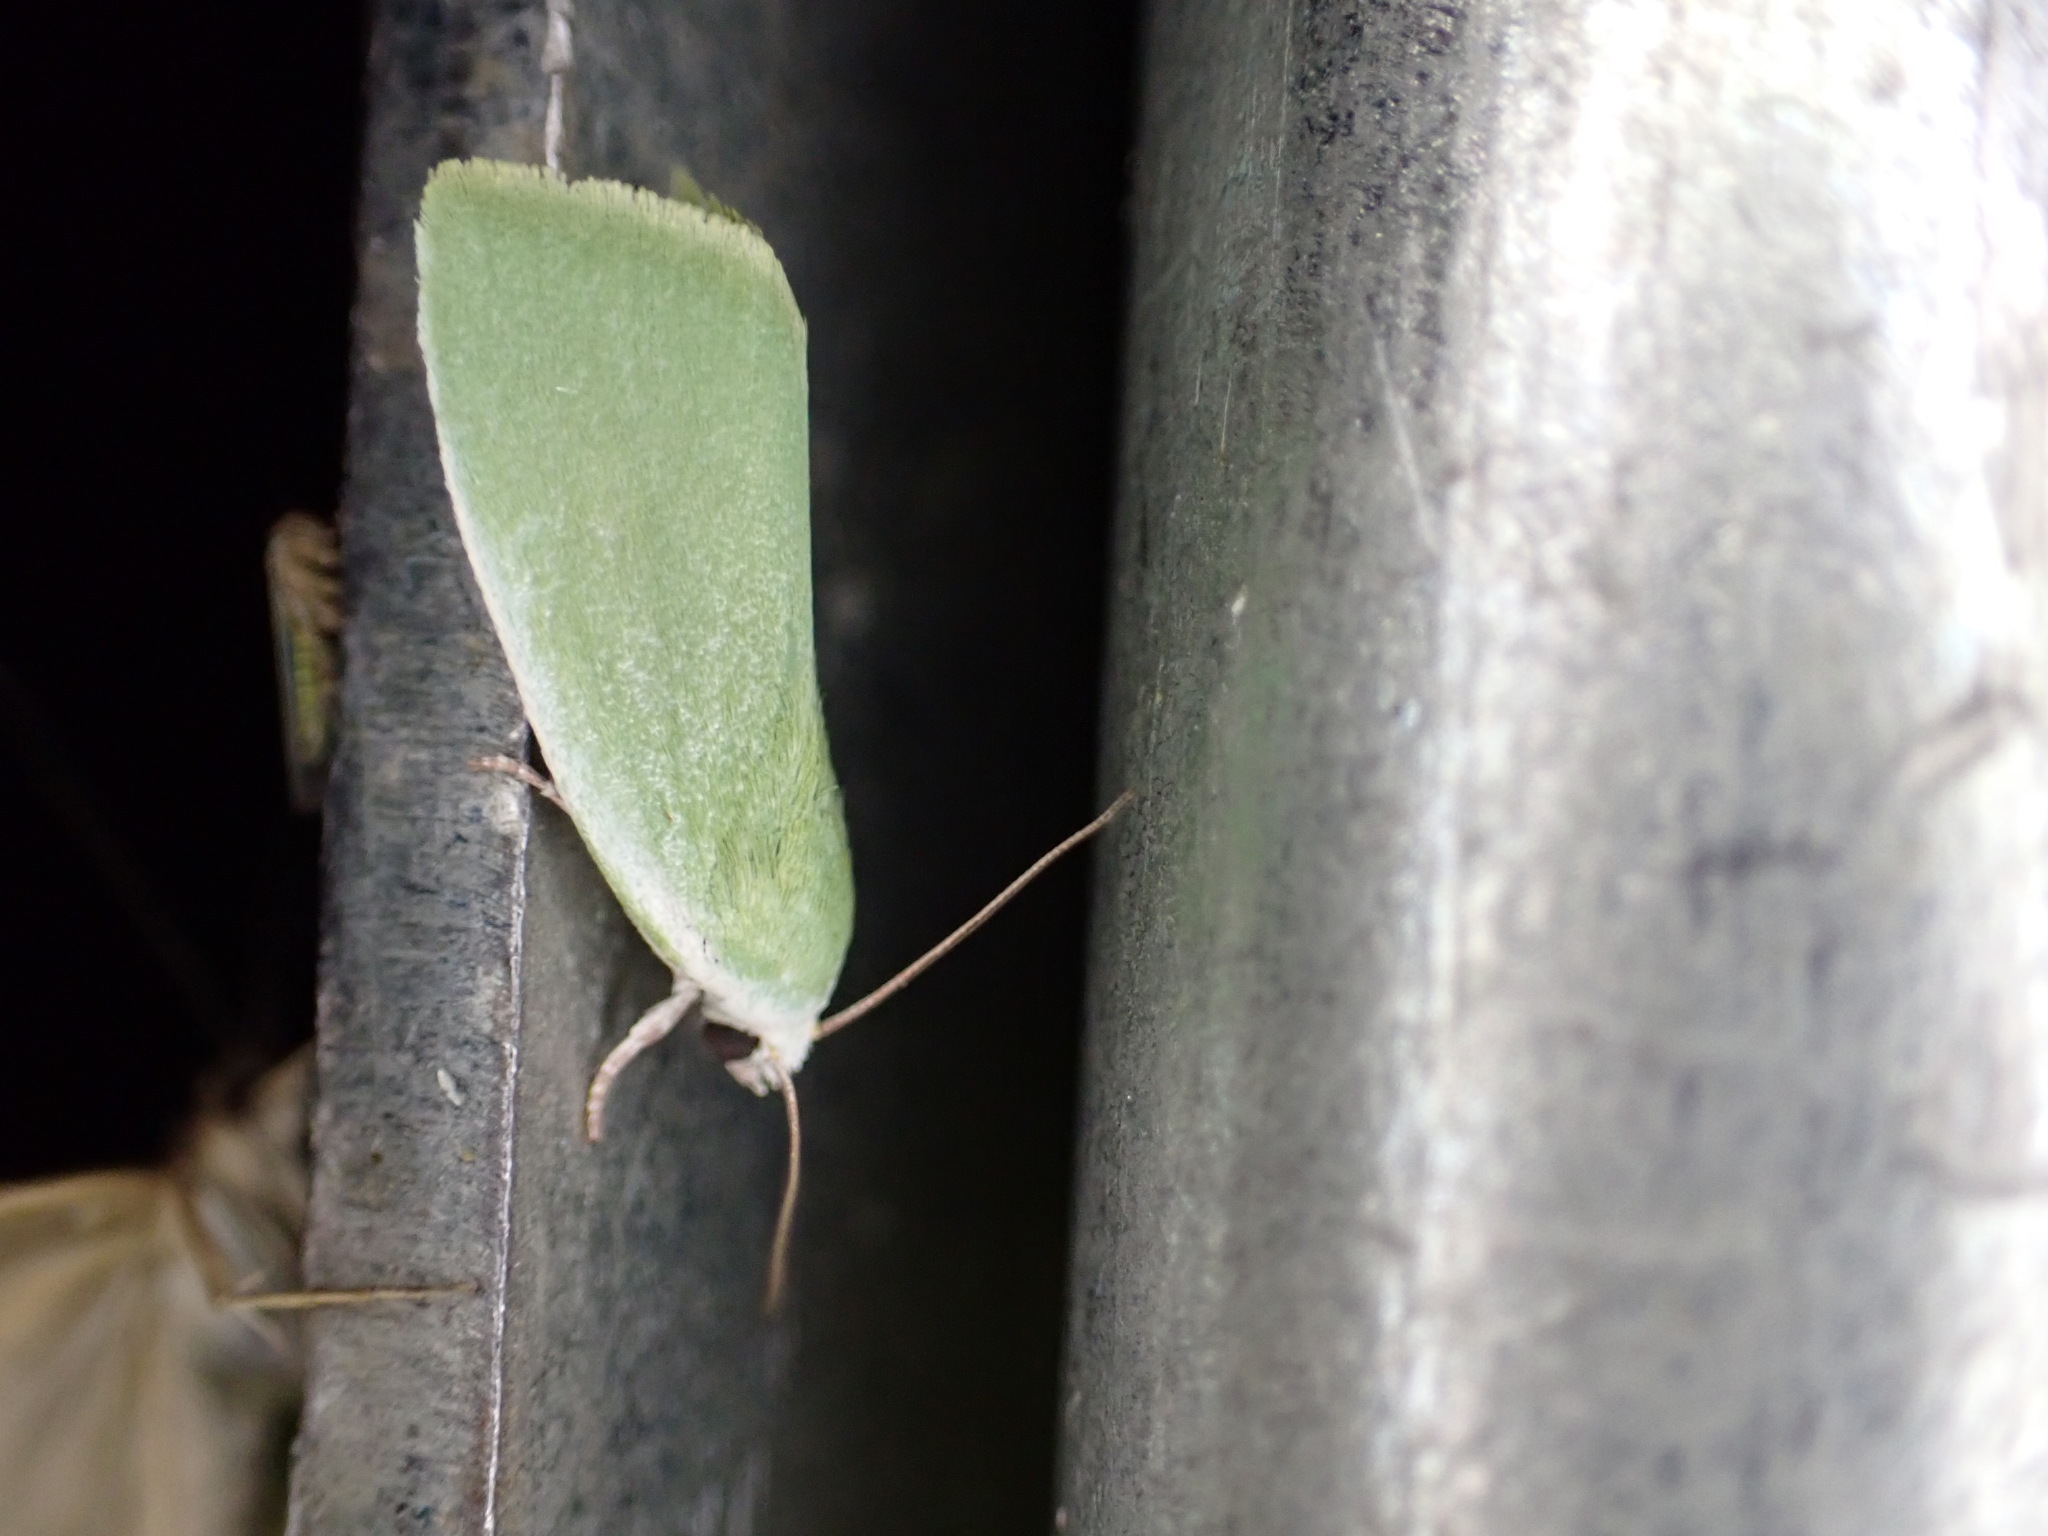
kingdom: Animalia
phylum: Arthropoda
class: Insecta
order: Lepidoptera
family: Nolidae
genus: Earias
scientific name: Earias clorana
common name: Cream-bordered green pea
